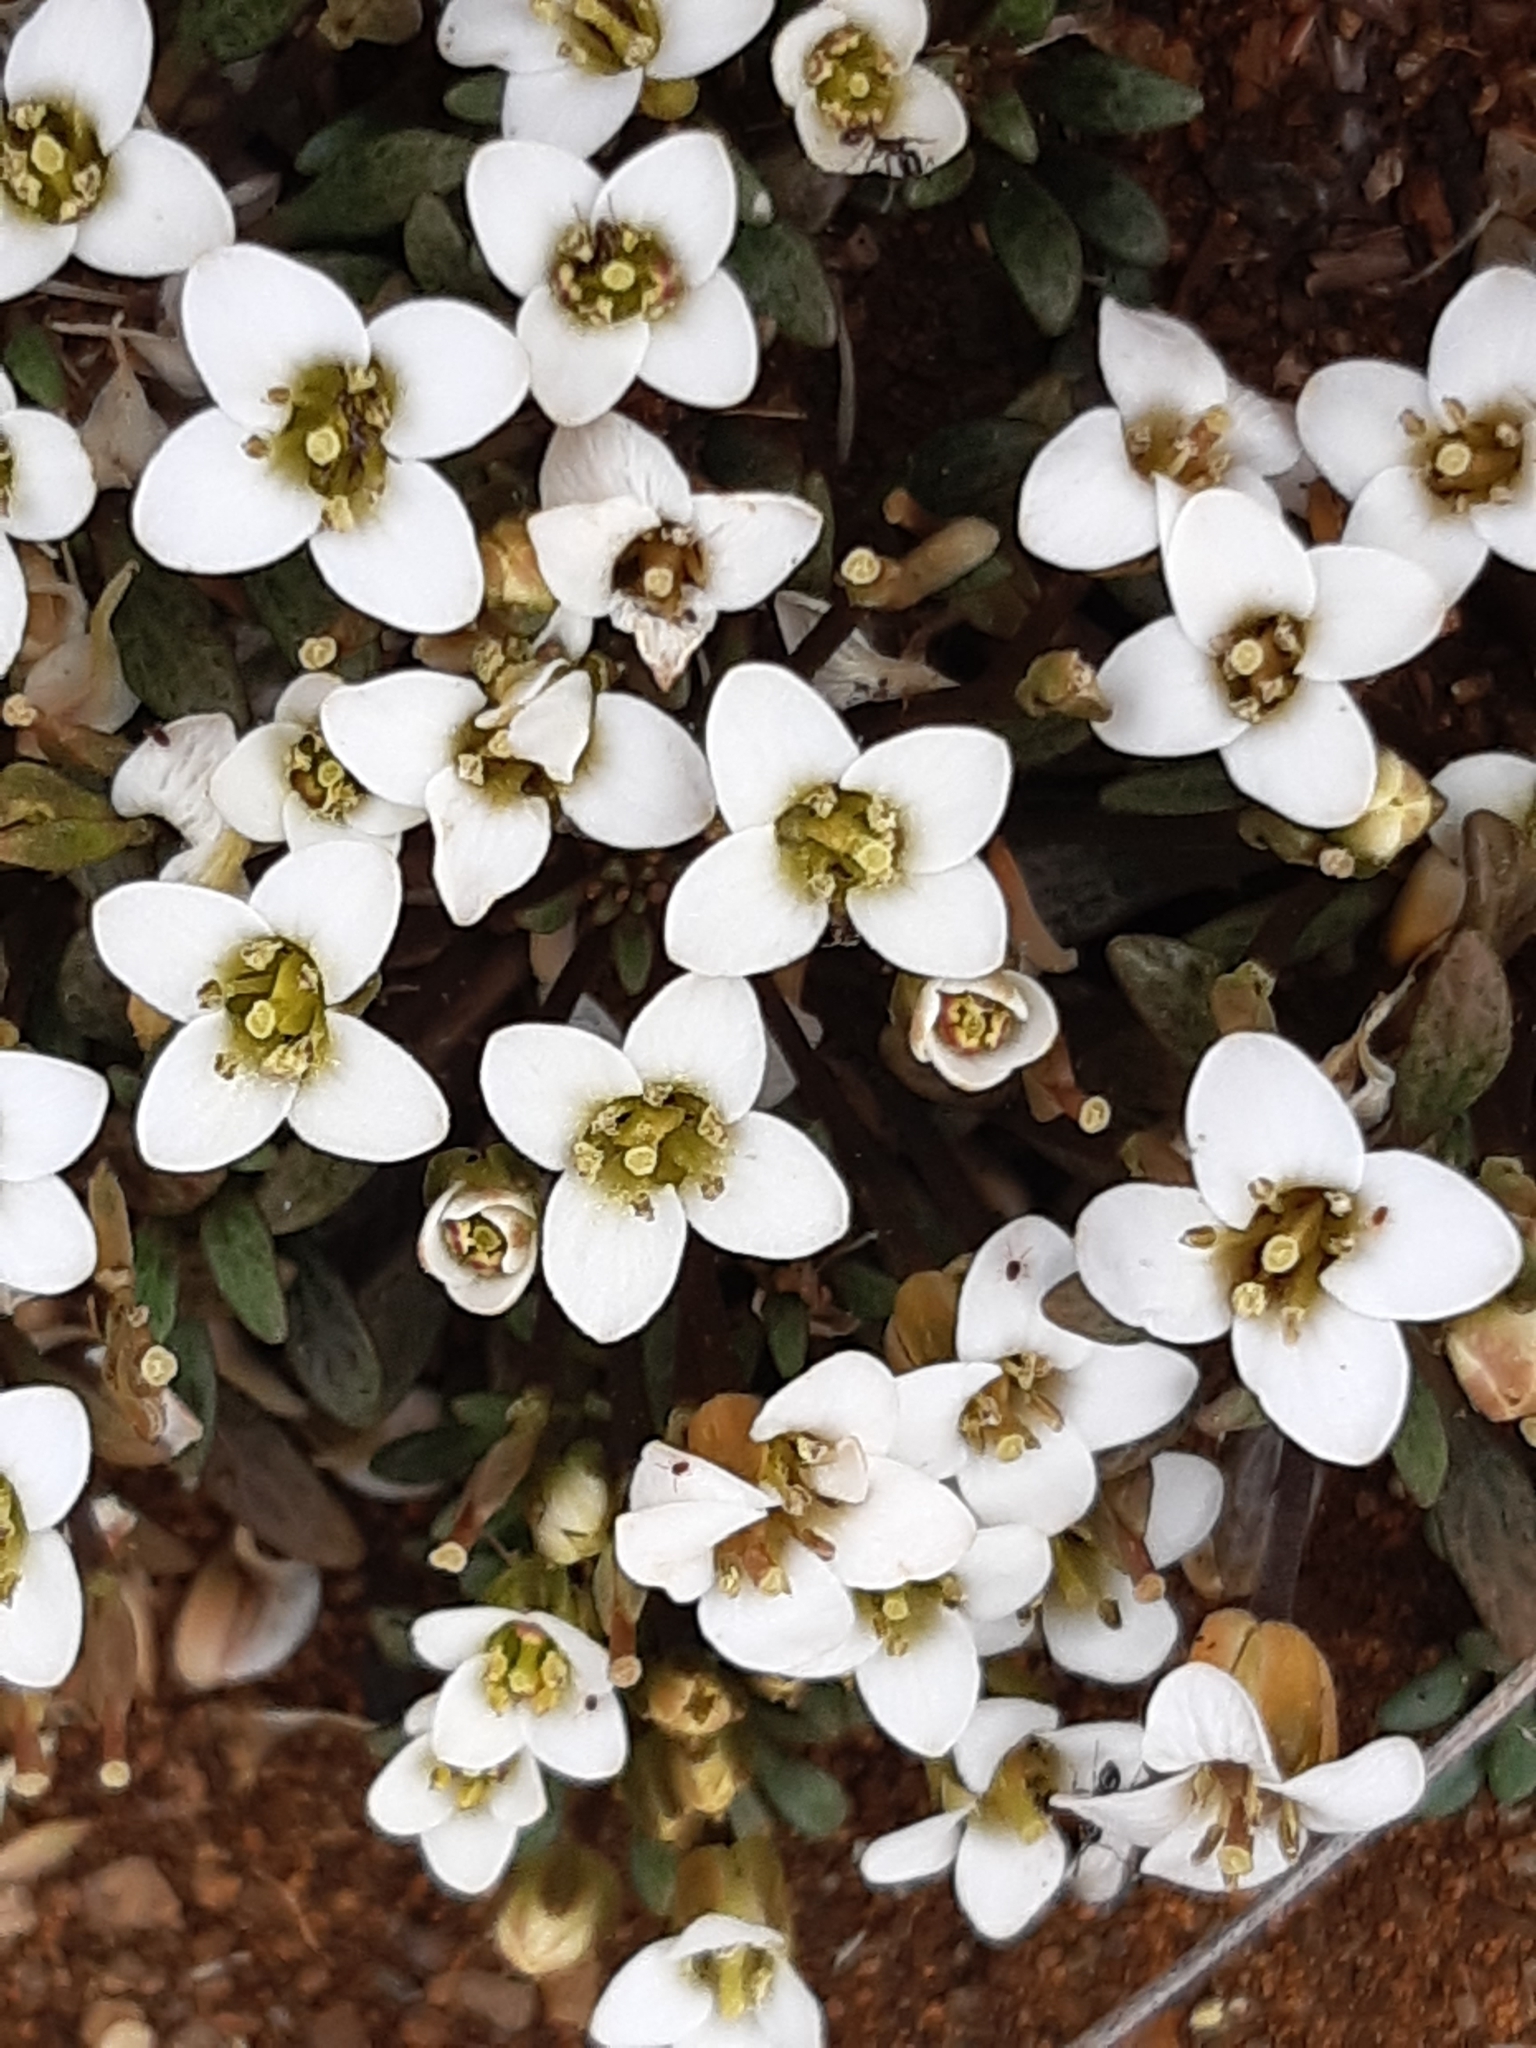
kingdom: Plantae
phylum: Tracheophyta
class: Magnoliopsida
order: Brassicales
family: Brassicaceae
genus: Notothlaspi
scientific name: Notothlaspi australe
